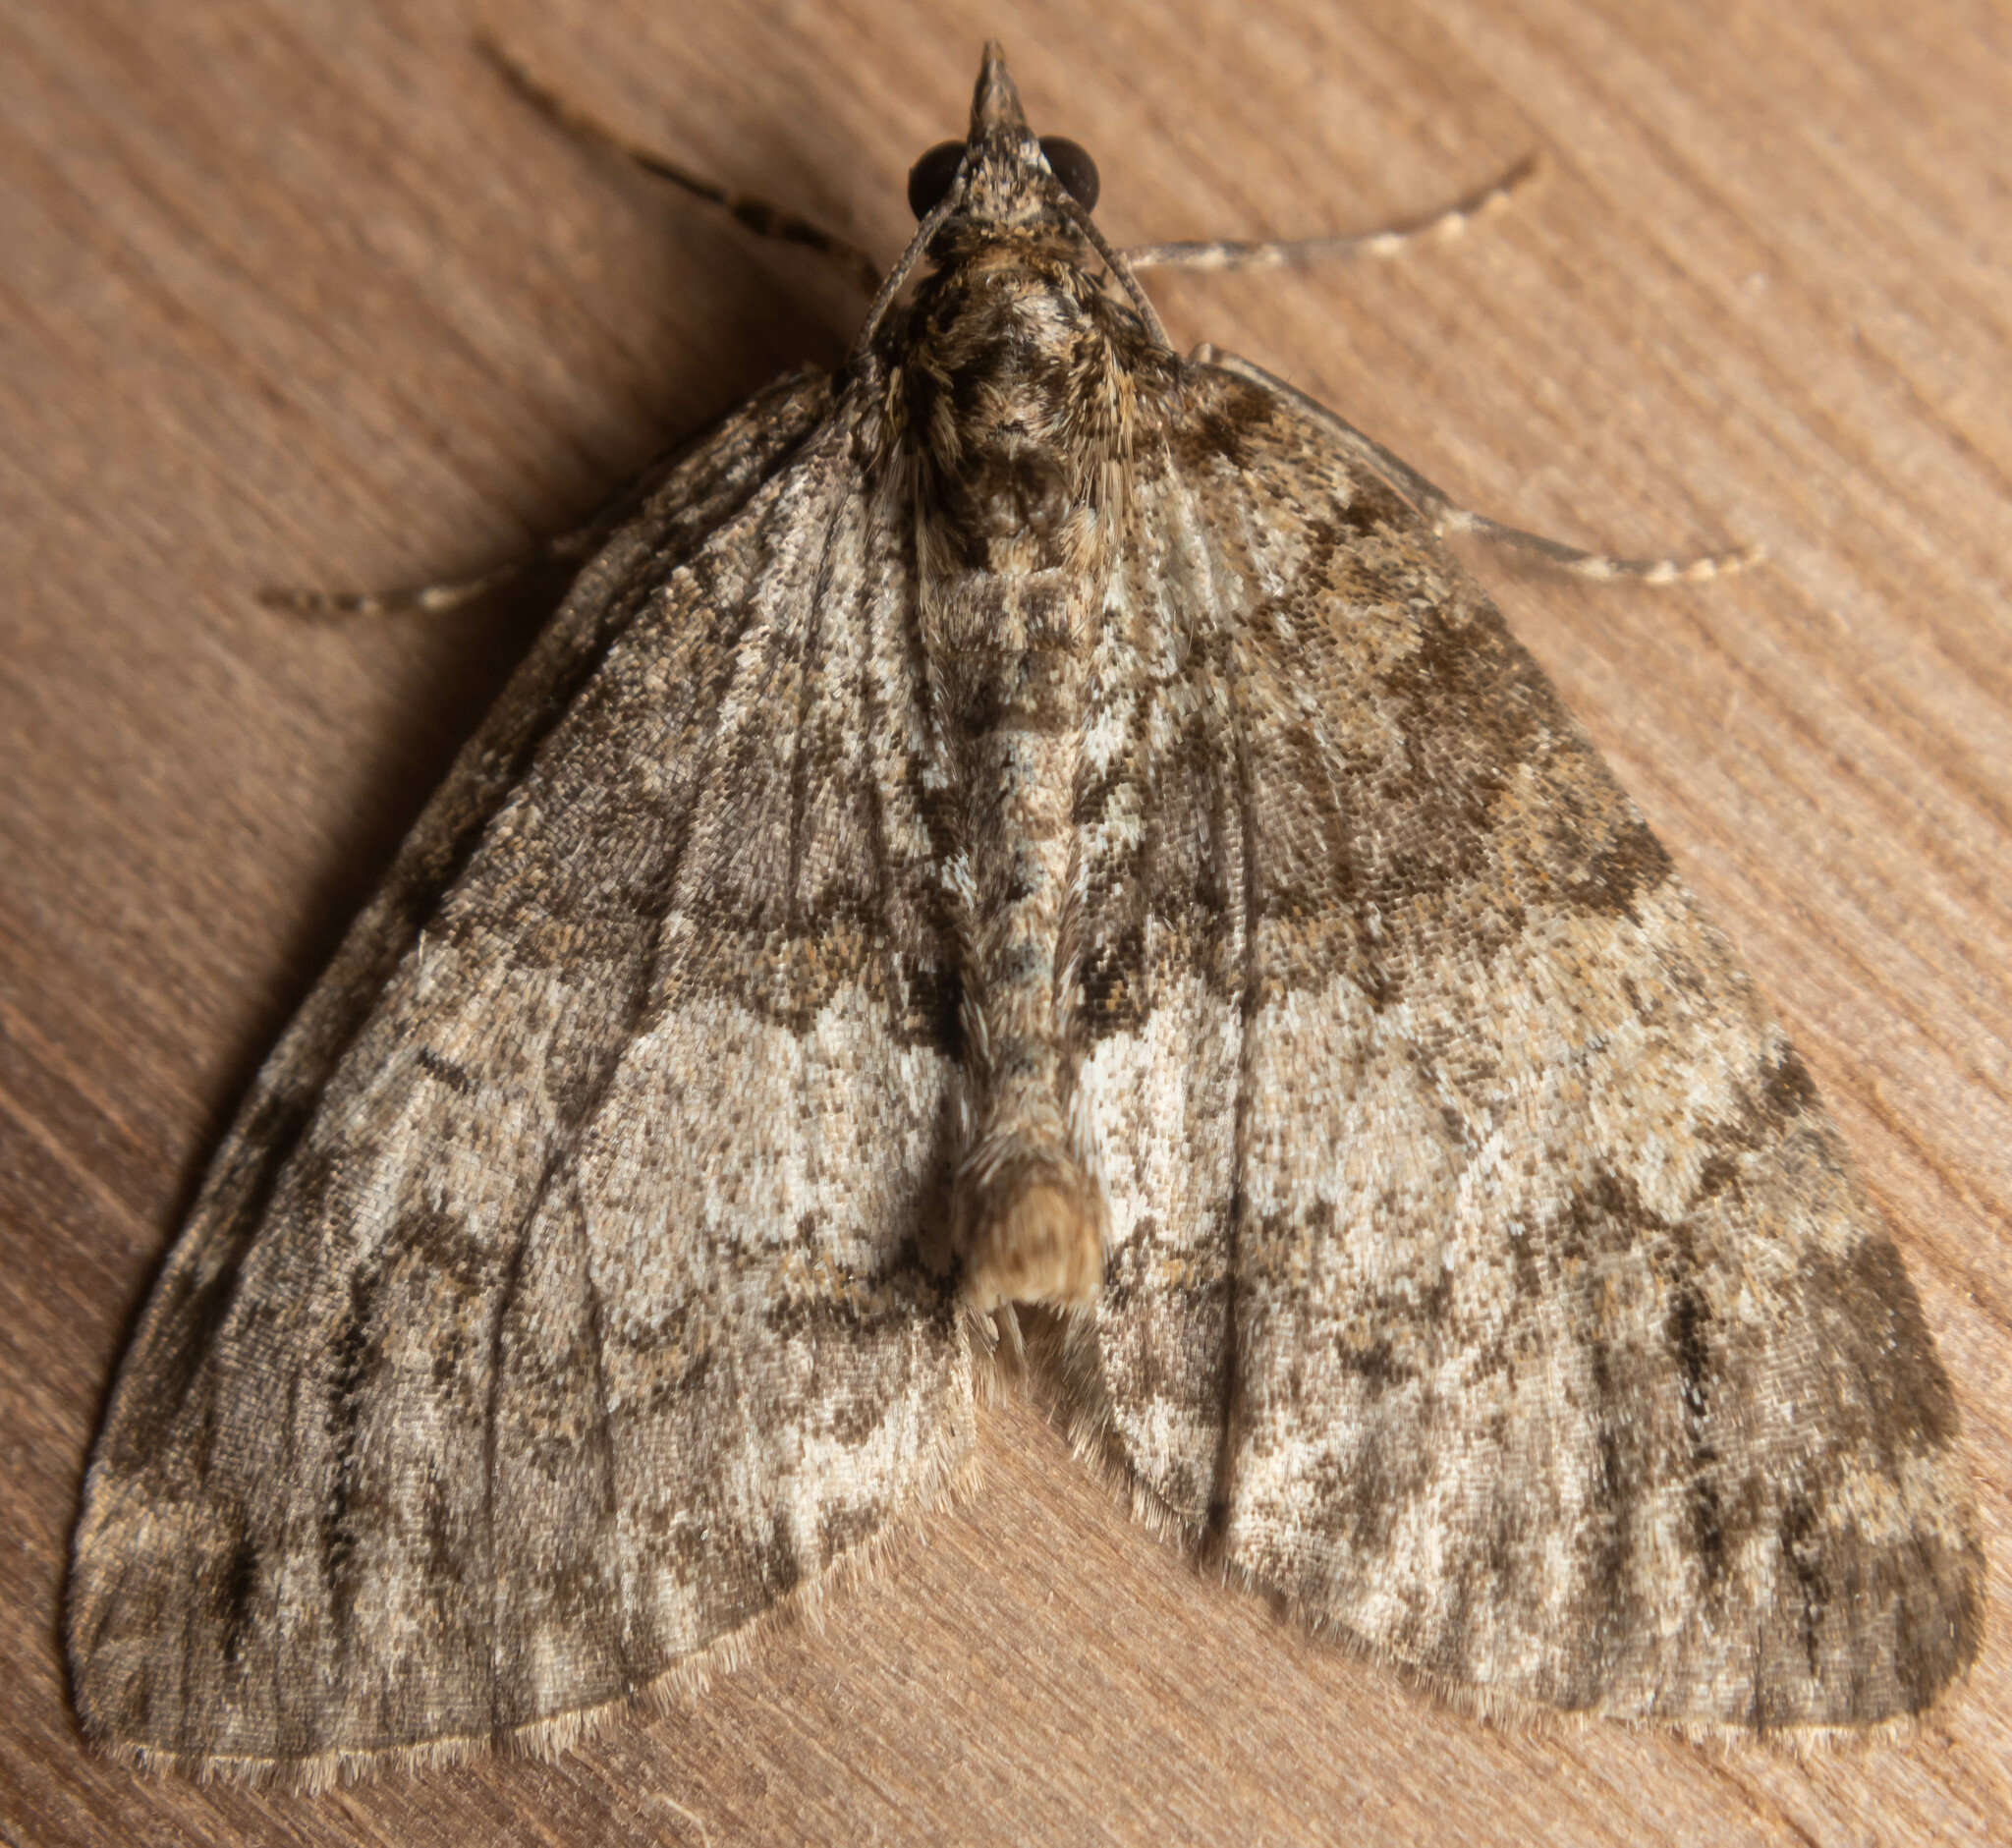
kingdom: Animalia
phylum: Arthropoda
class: Insecta
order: Lepidoptera
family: Geometridae
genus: Hydriomena
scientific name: Hydriomena impluviata
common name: May highflyer
